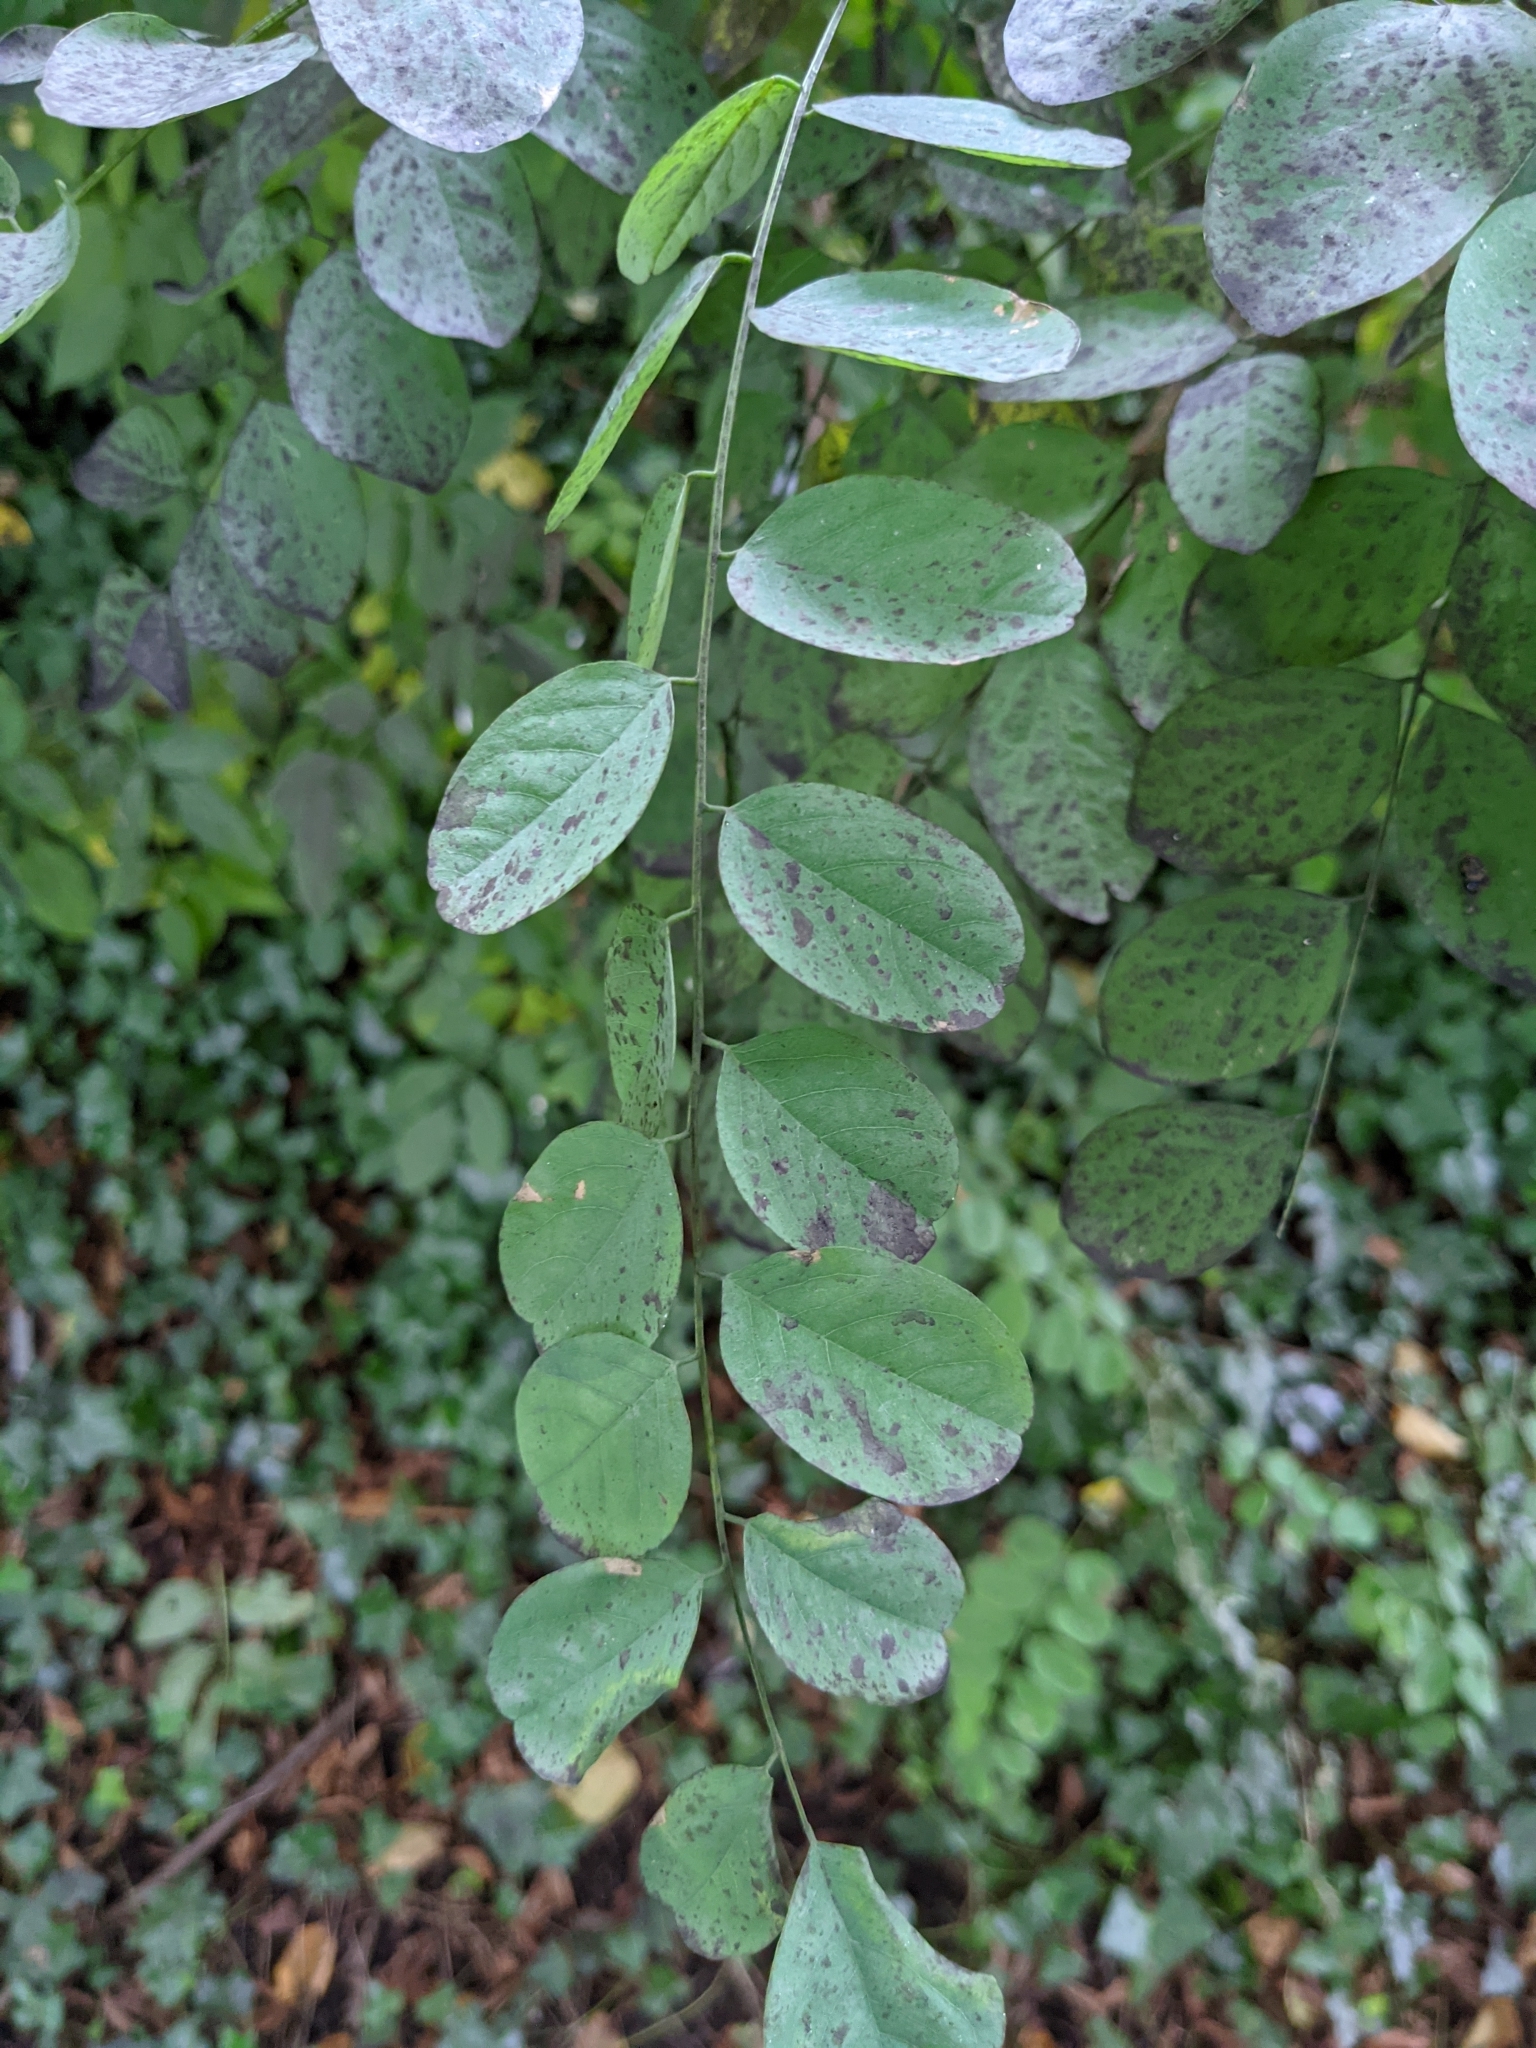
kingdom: Plantae
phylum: Tracheophyta
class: Magnoliopsida
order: Fabales
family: Fabaceae
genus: Robinia
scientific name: Robinia pseudoacacia
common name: Black locust
